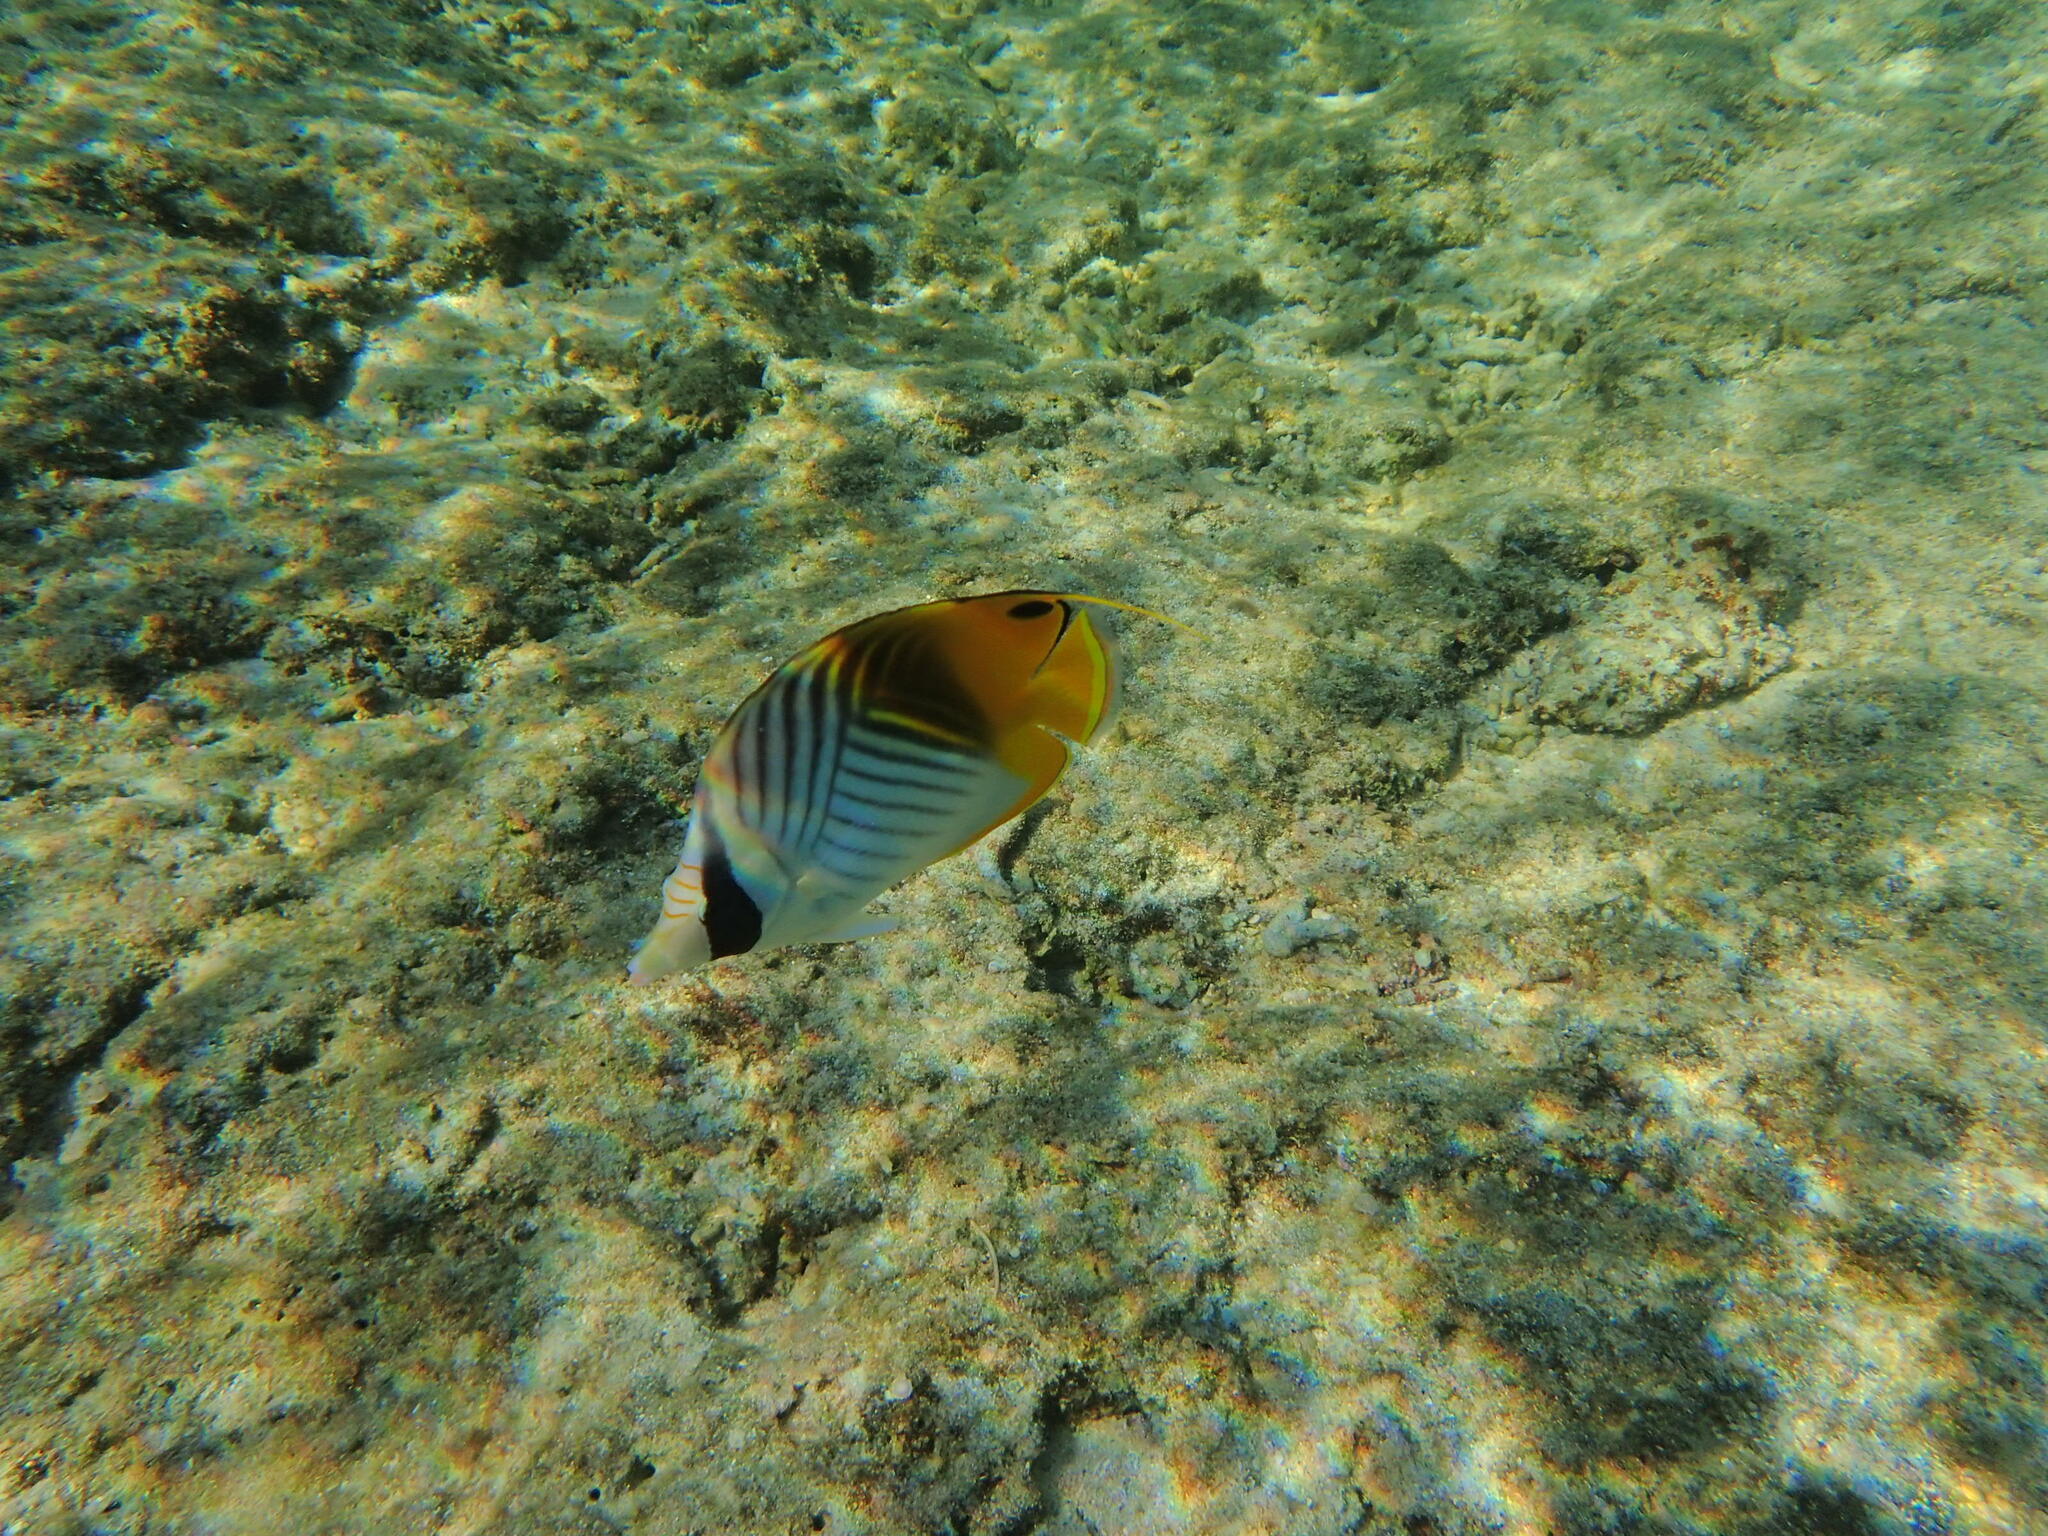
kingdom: Animalia
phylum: Chordata
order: Perciformes
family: Chaetodontidae
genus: Chaetodon
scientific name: Chaetodon auriga
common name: Threadfin butterflyfish
